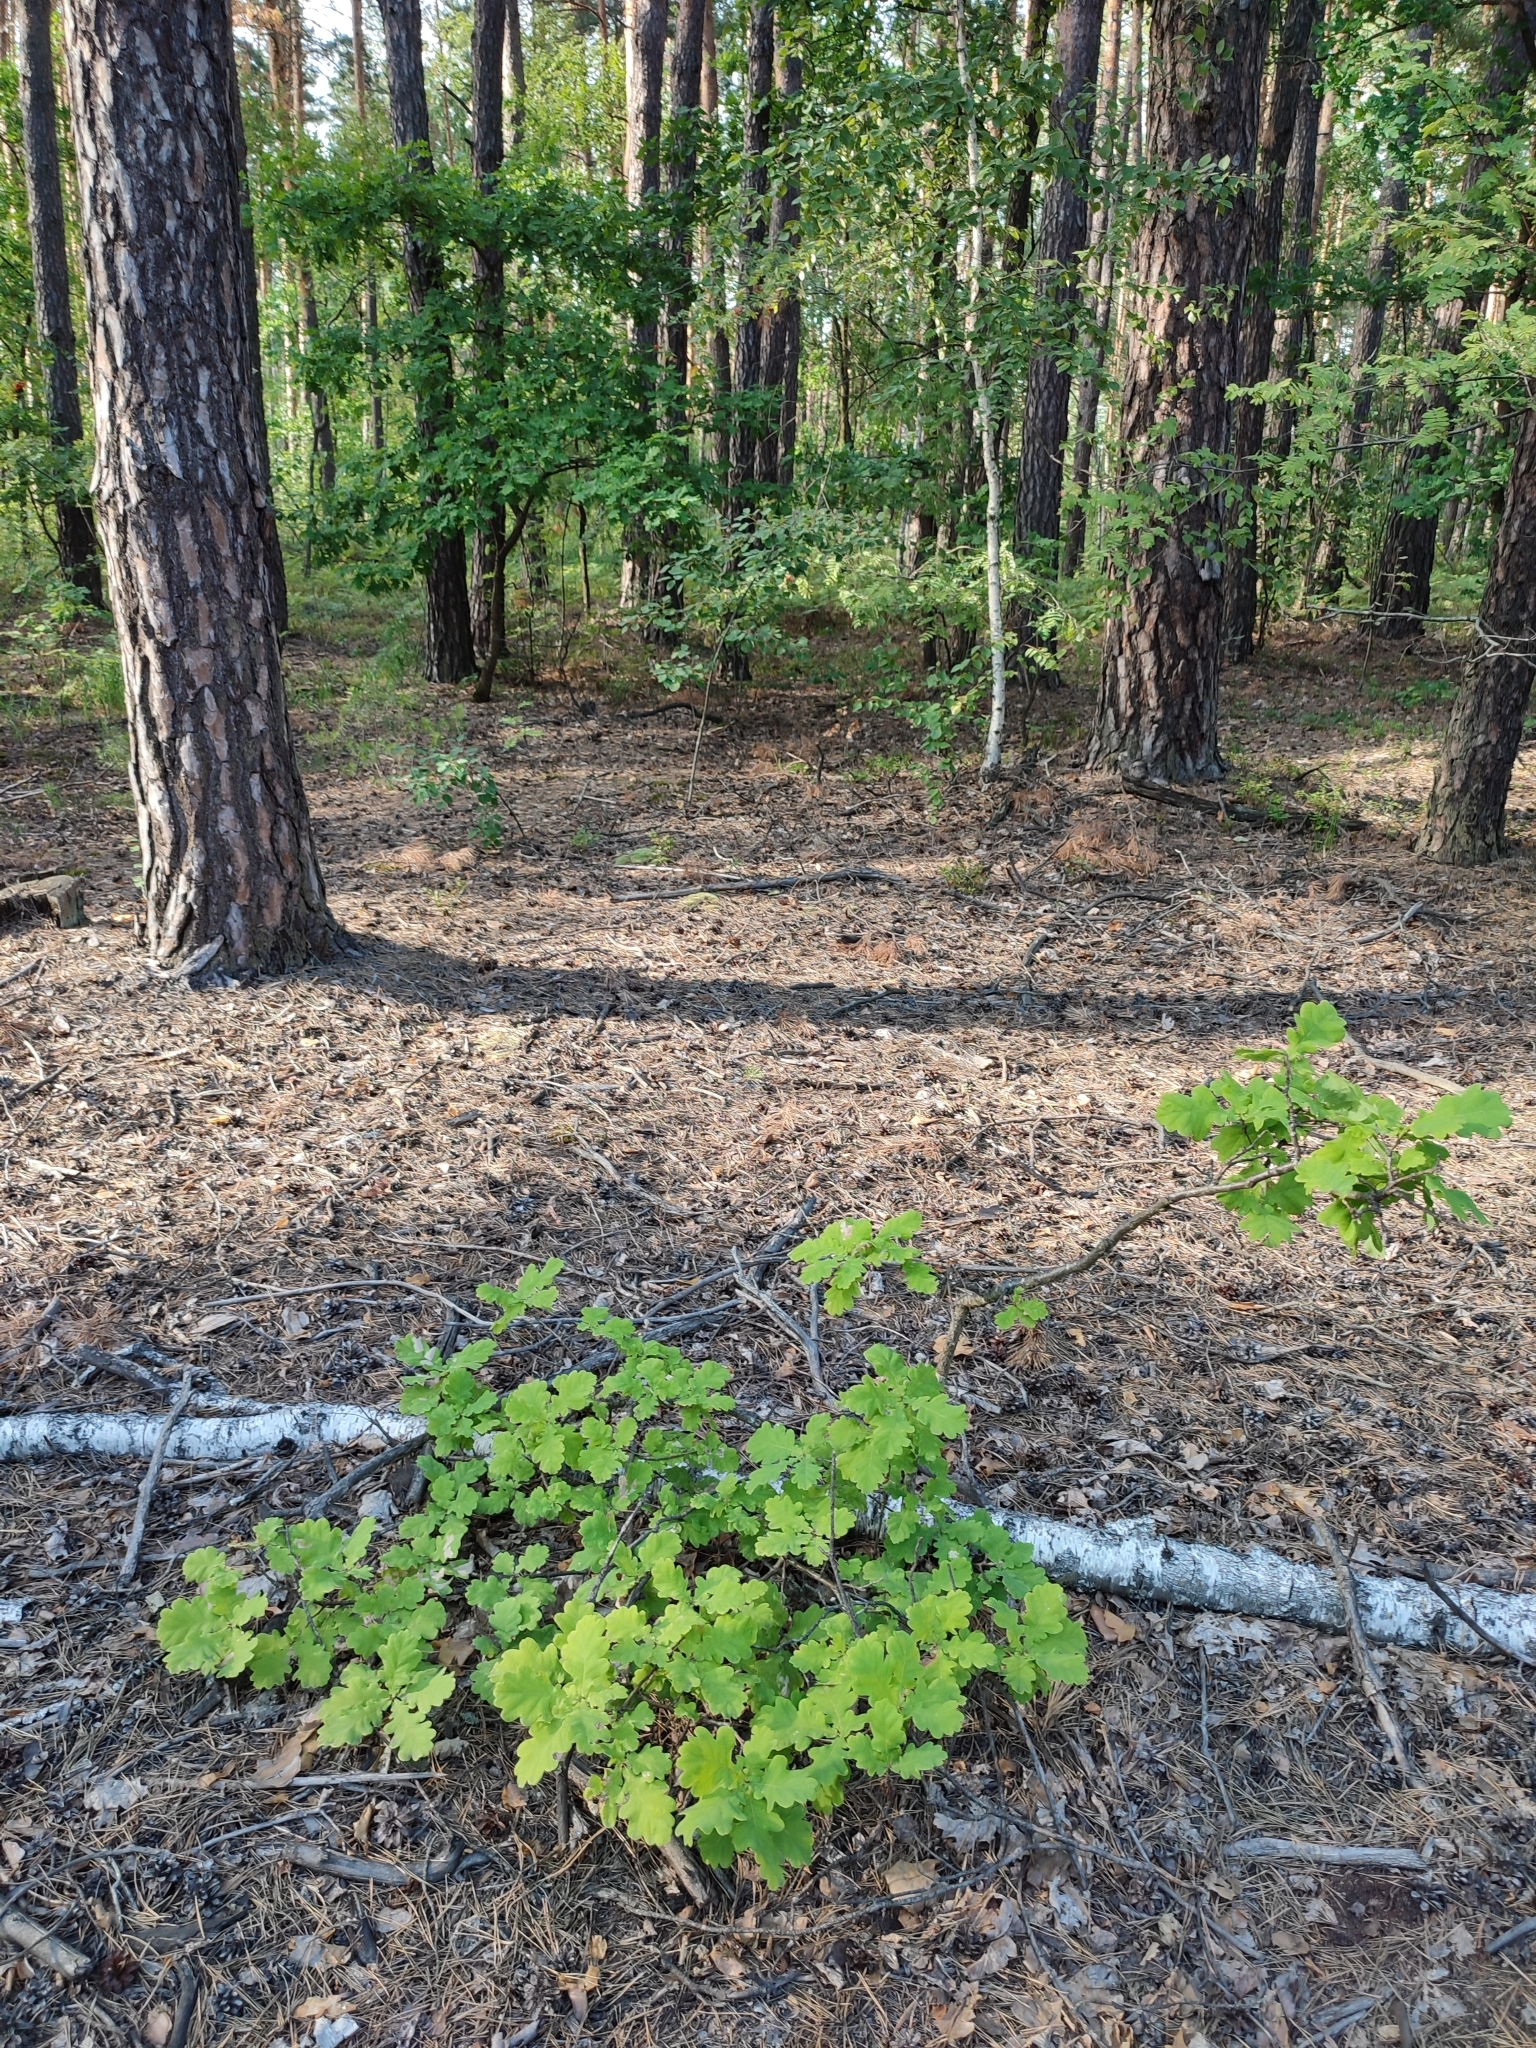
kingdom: Plantae
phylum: Tracheophyta
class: Magnoliopsida
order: Fagales
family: Fagaceae
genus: Quercus
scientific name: Quercus robur
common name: Pedunculate oak
